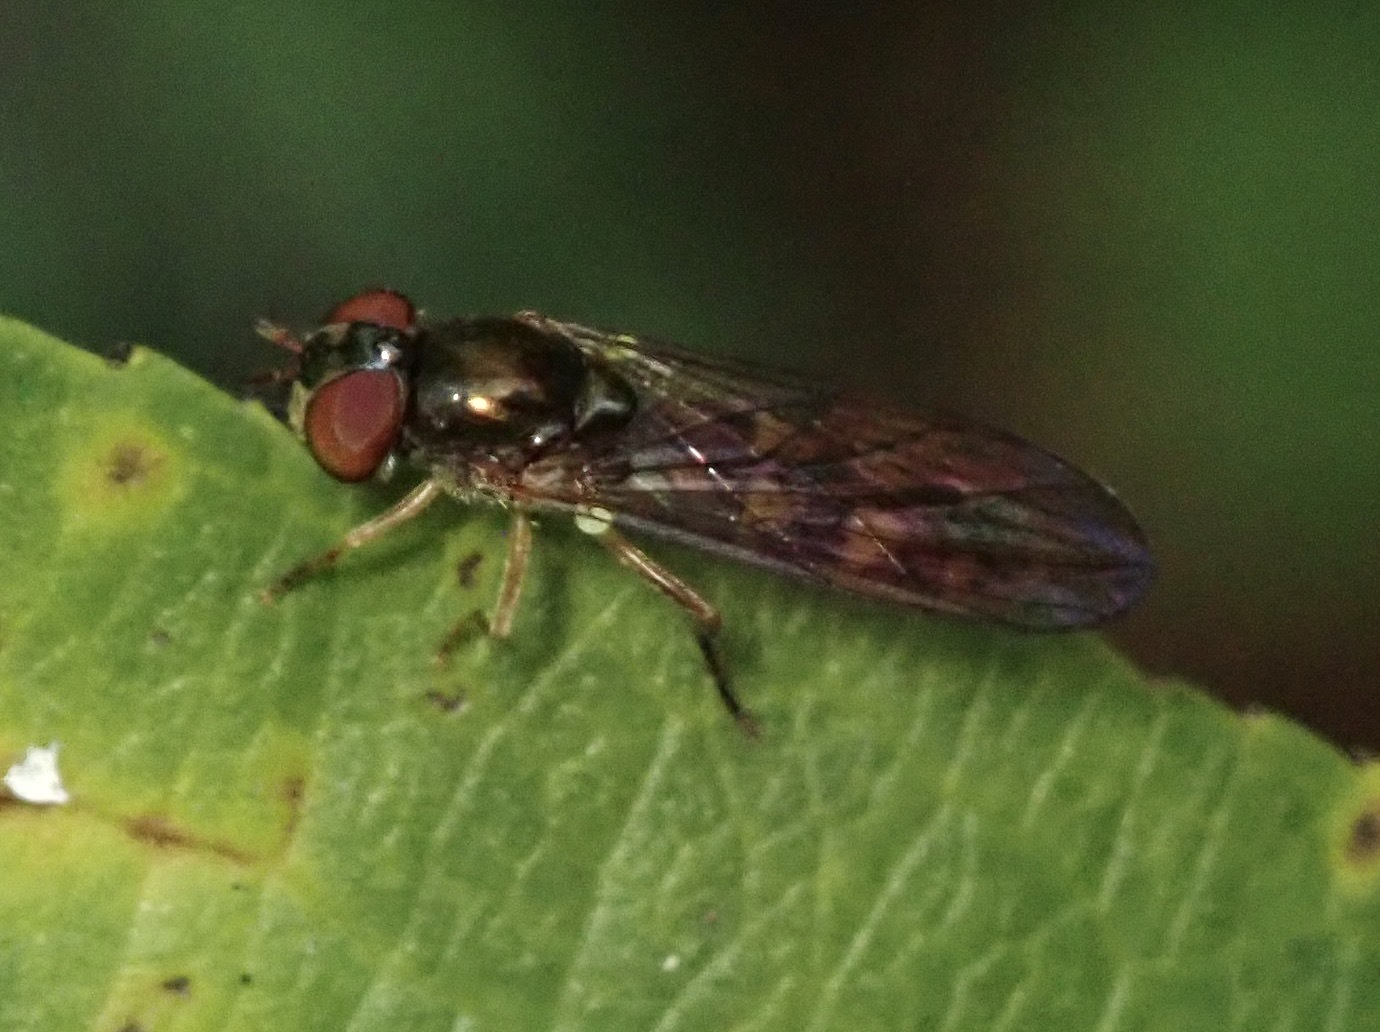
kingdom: Animalia
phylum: Arthropoda
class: Insecta
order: Diptera
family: Syrphidae
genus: Melanostoma
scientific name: Melanostoma mellina
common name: Hover fly
